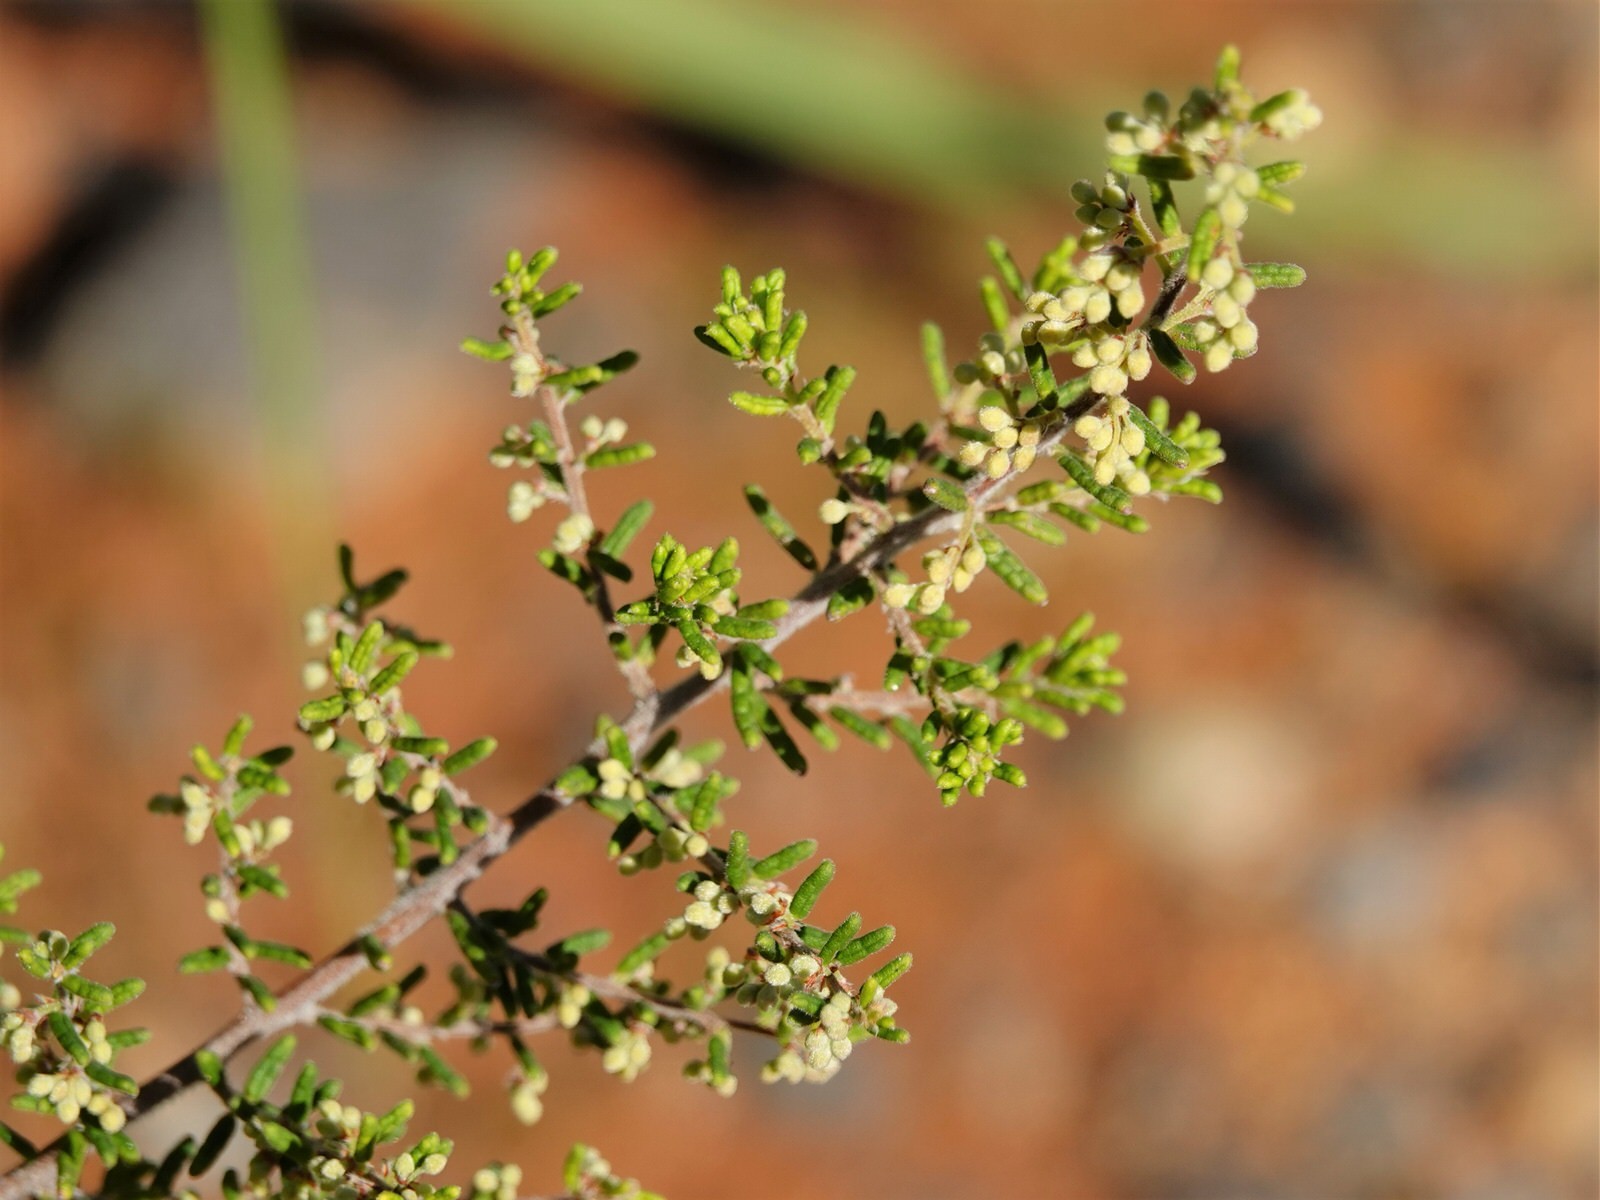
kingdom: Plantae
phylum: Tracheophyta
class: Magnoliopsida
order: Rosales
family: Rhamnaceae
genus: Pomaderris
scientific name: Pomaderris amoena
